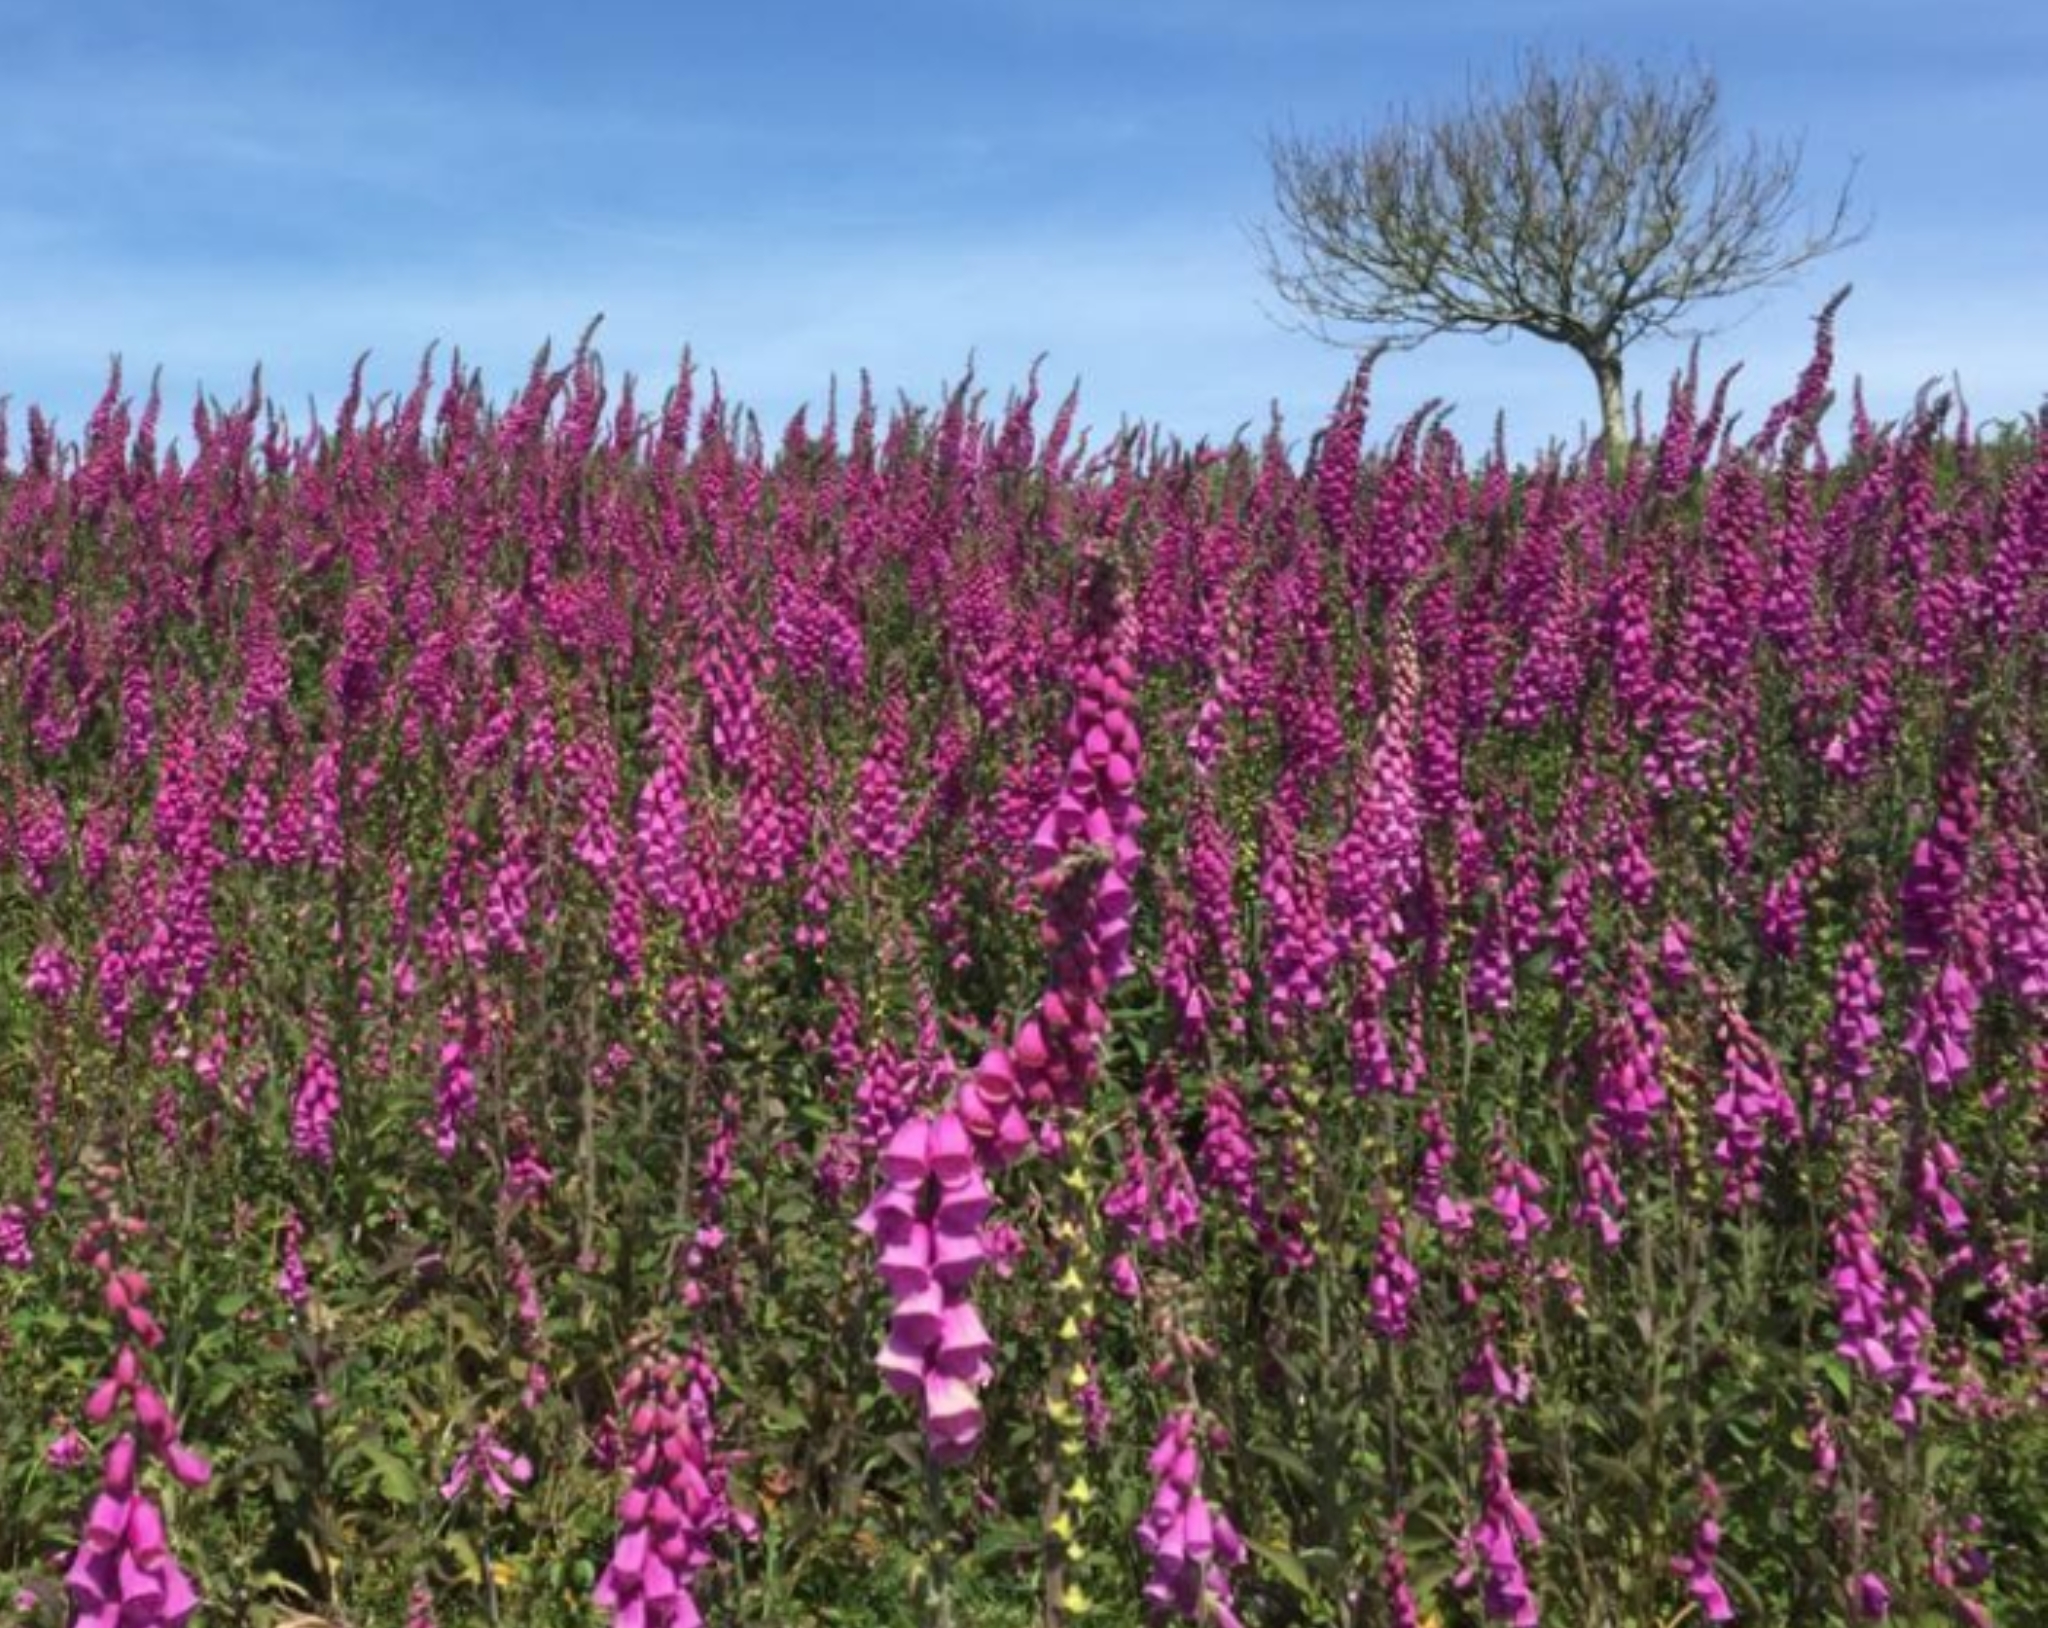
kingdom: Plantae
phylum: Tracheophyta
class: Magnoliopsida
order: Lamiales
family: Plantaginaceae
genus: Digitalis
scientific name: Digitalis purpurea
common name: Foxglove
